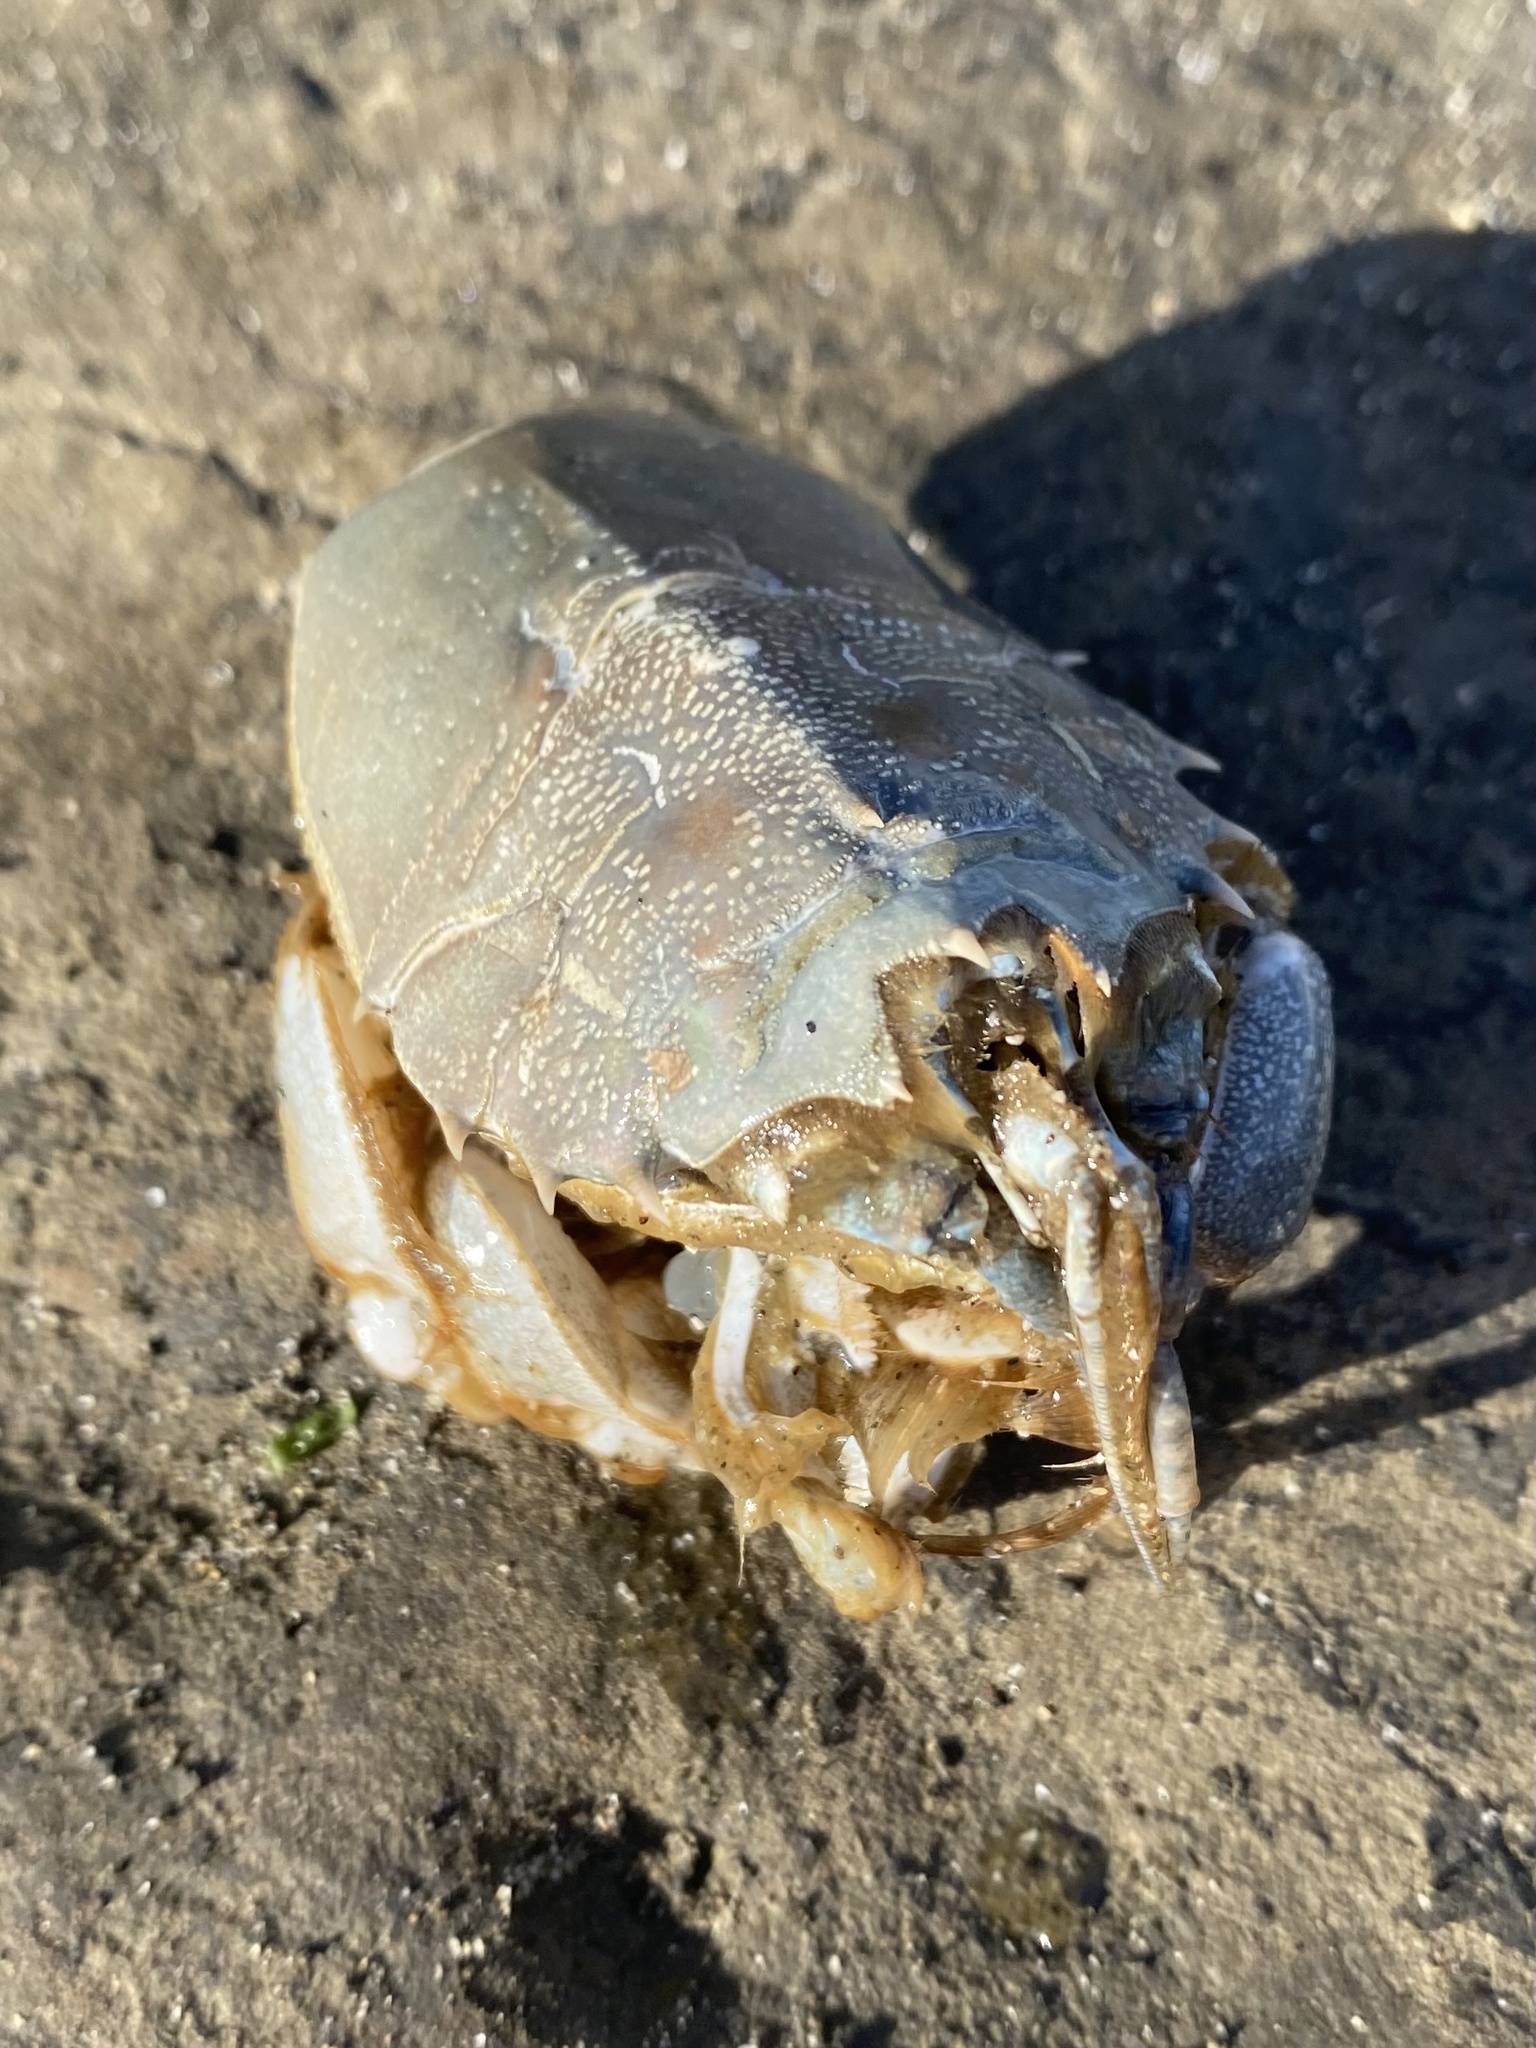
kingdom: Animalia
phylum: Arthropoda
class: Malacostraca
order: Decapoda
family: Blepharipodidae
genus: Blepharipoda
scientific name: Blepharipoda occidentalis
